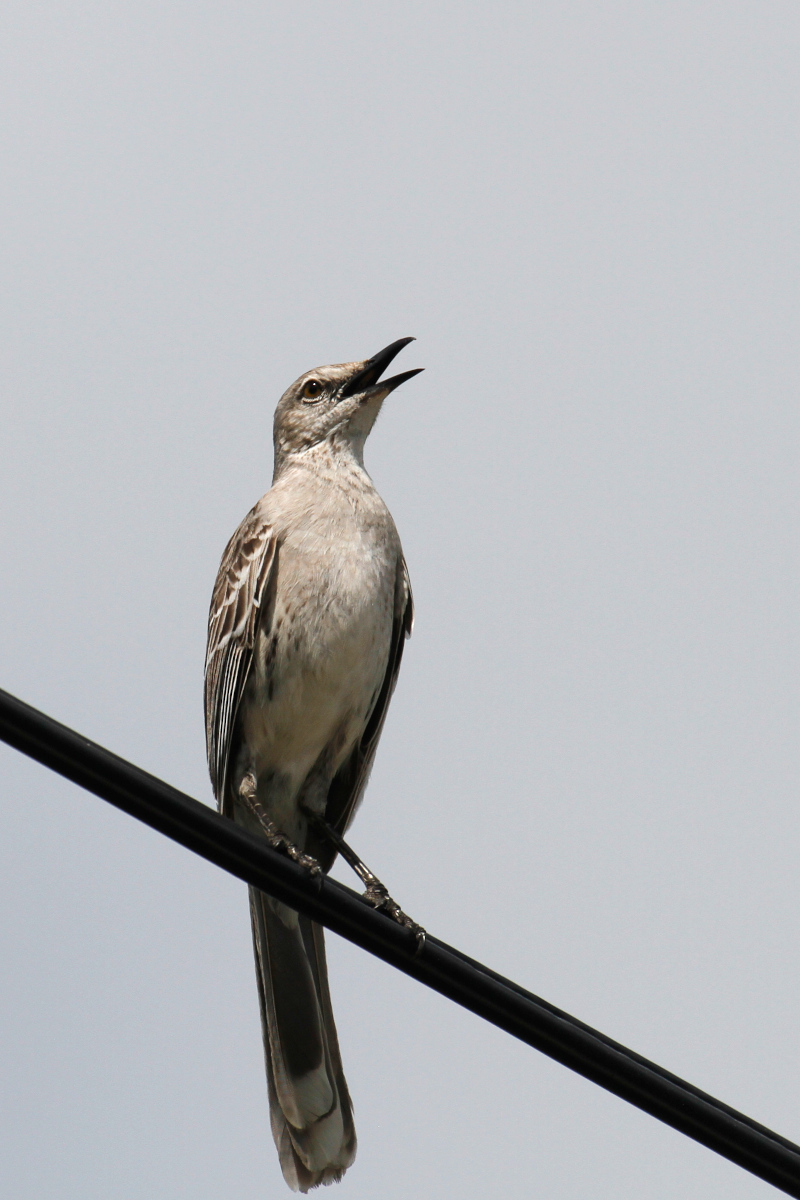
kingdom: Animalia
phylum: Chordata
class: Aves
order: Passeriformes
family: Mimidae
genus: Mimus
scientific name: Mimus gundlachii
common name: Bahama mockingbird
